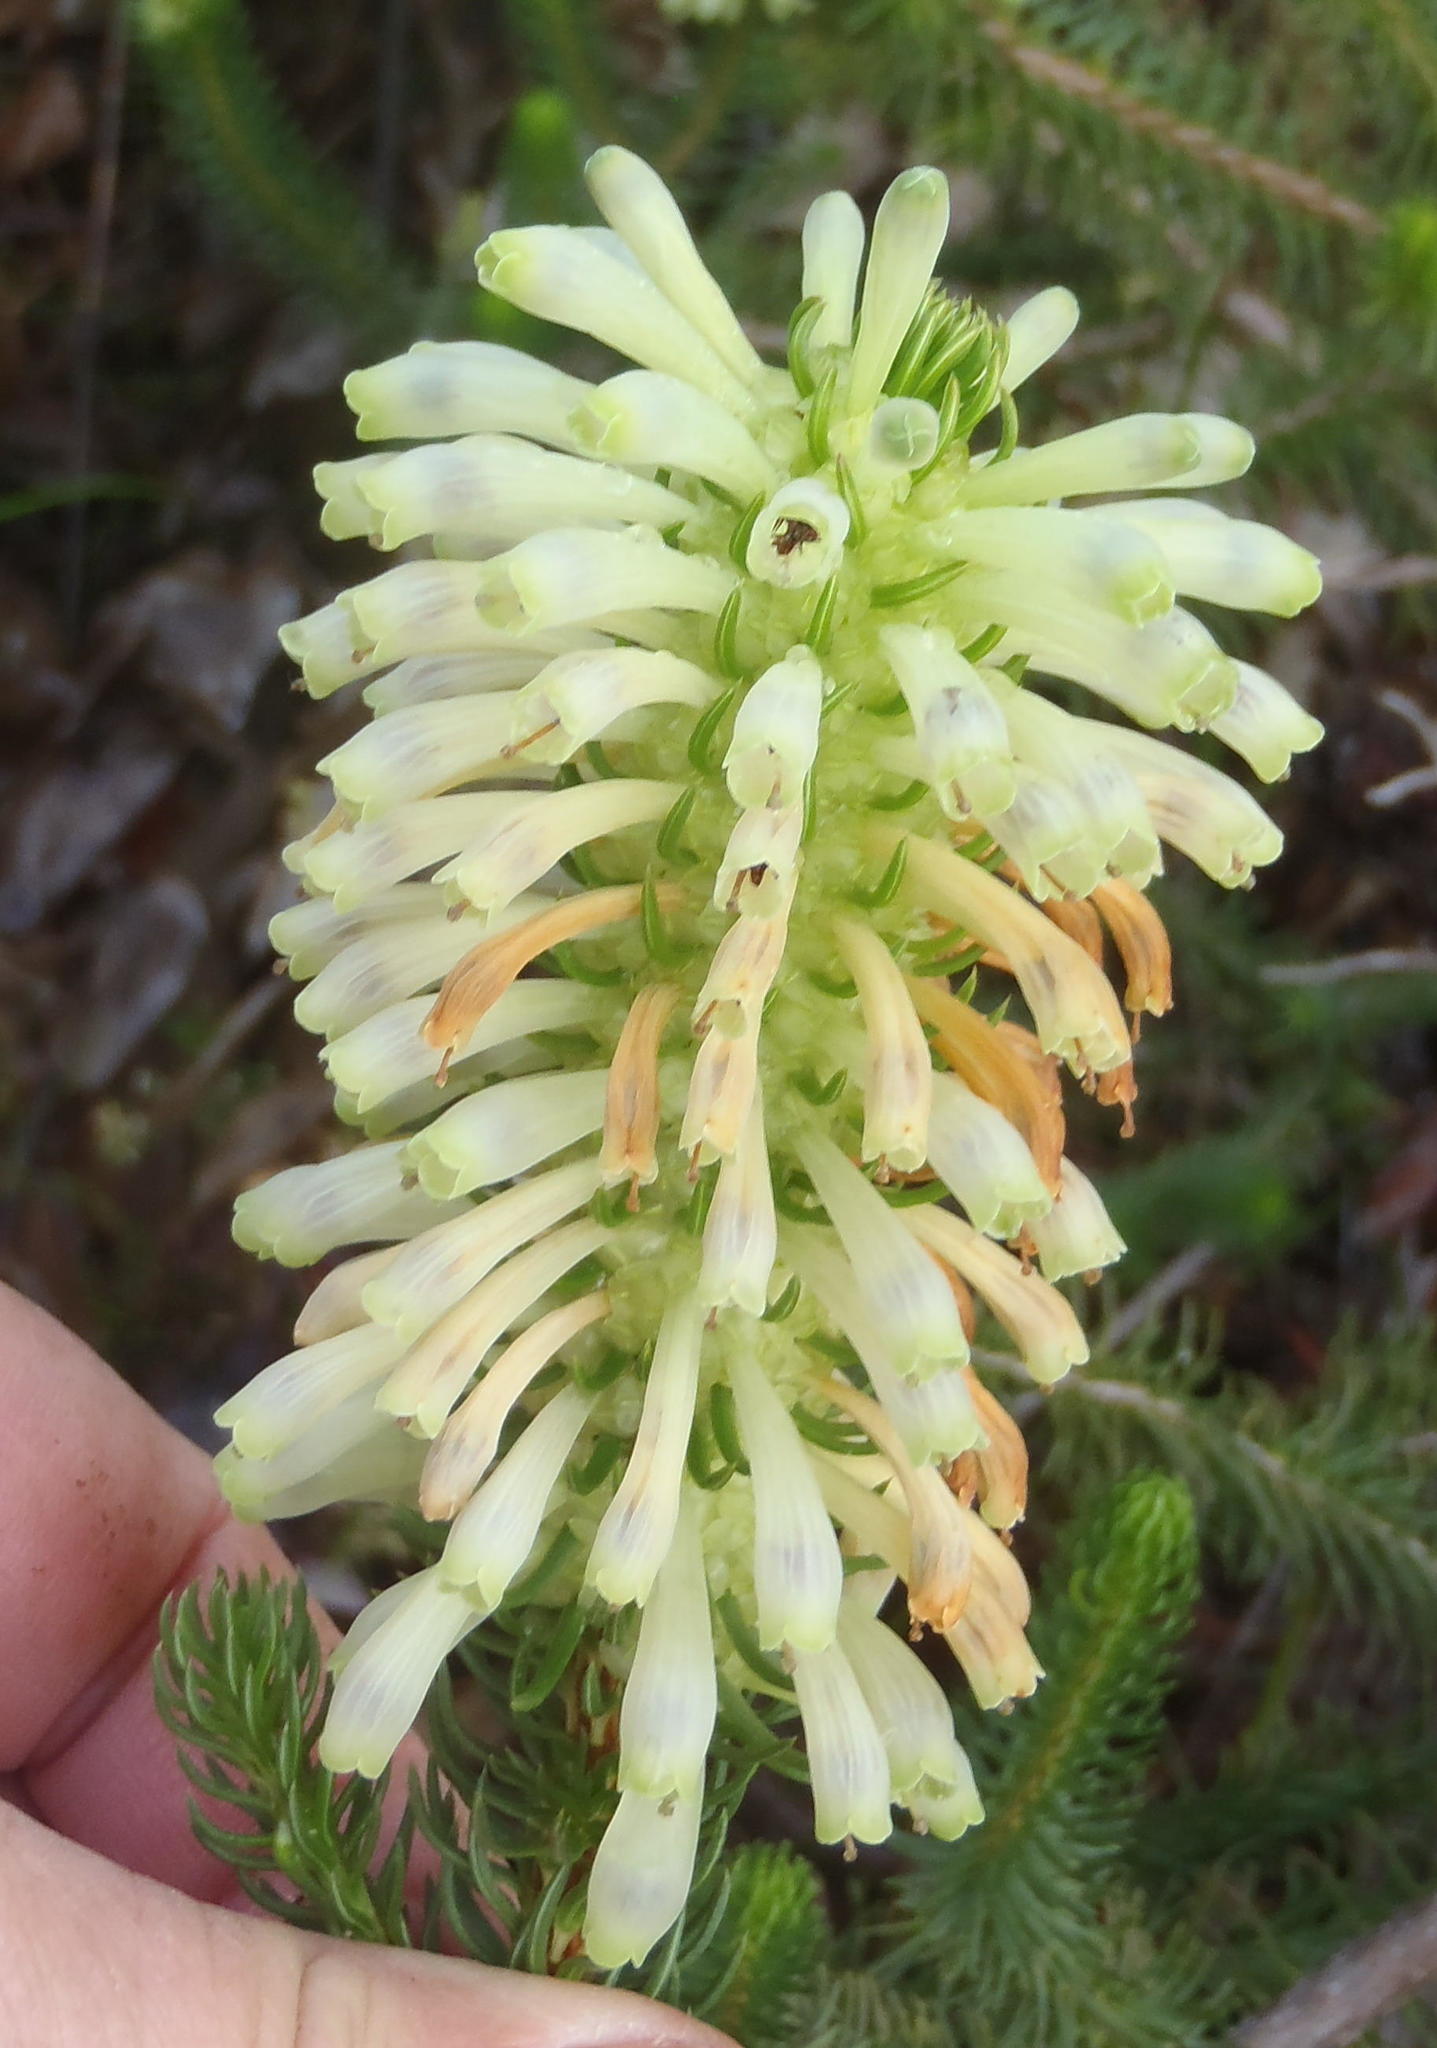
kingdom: Plantae
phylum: Tracheophyta
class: Magnoliopsida
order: Ericales
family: Ericaceae
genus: Erica
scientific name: Erica sessiliflora
